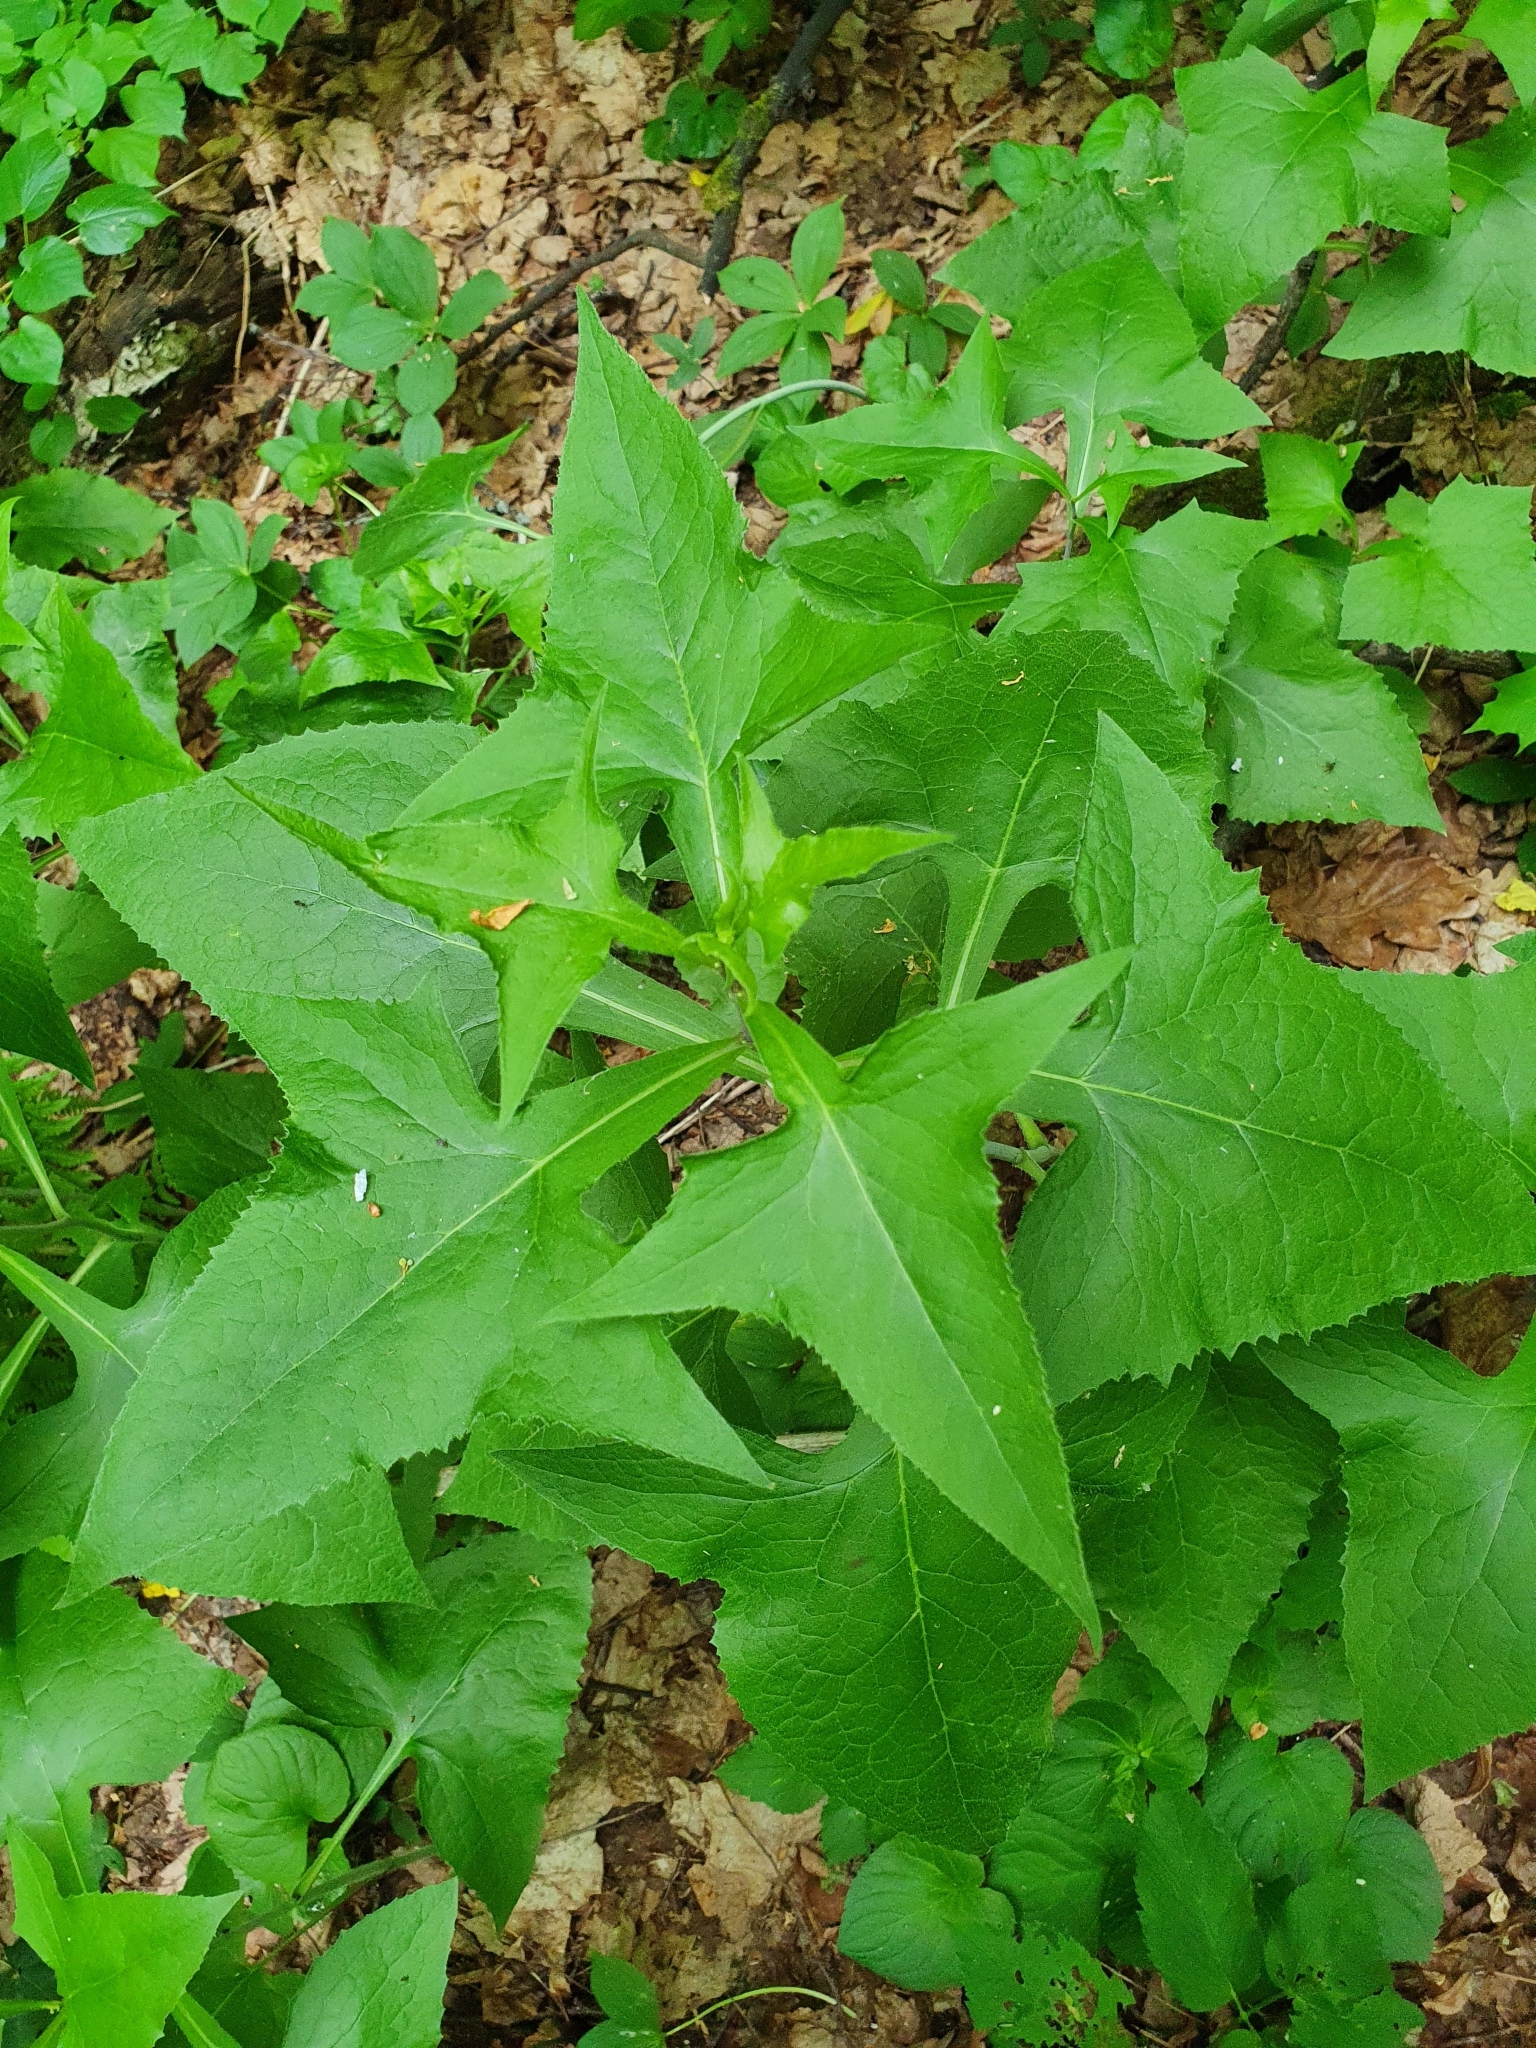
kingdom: Plantae
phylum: Tracheophyta
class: Magnoliopsida
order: Asterales
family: Asteraceae
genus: Parasenecio
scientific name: Parasenecio hastatus
